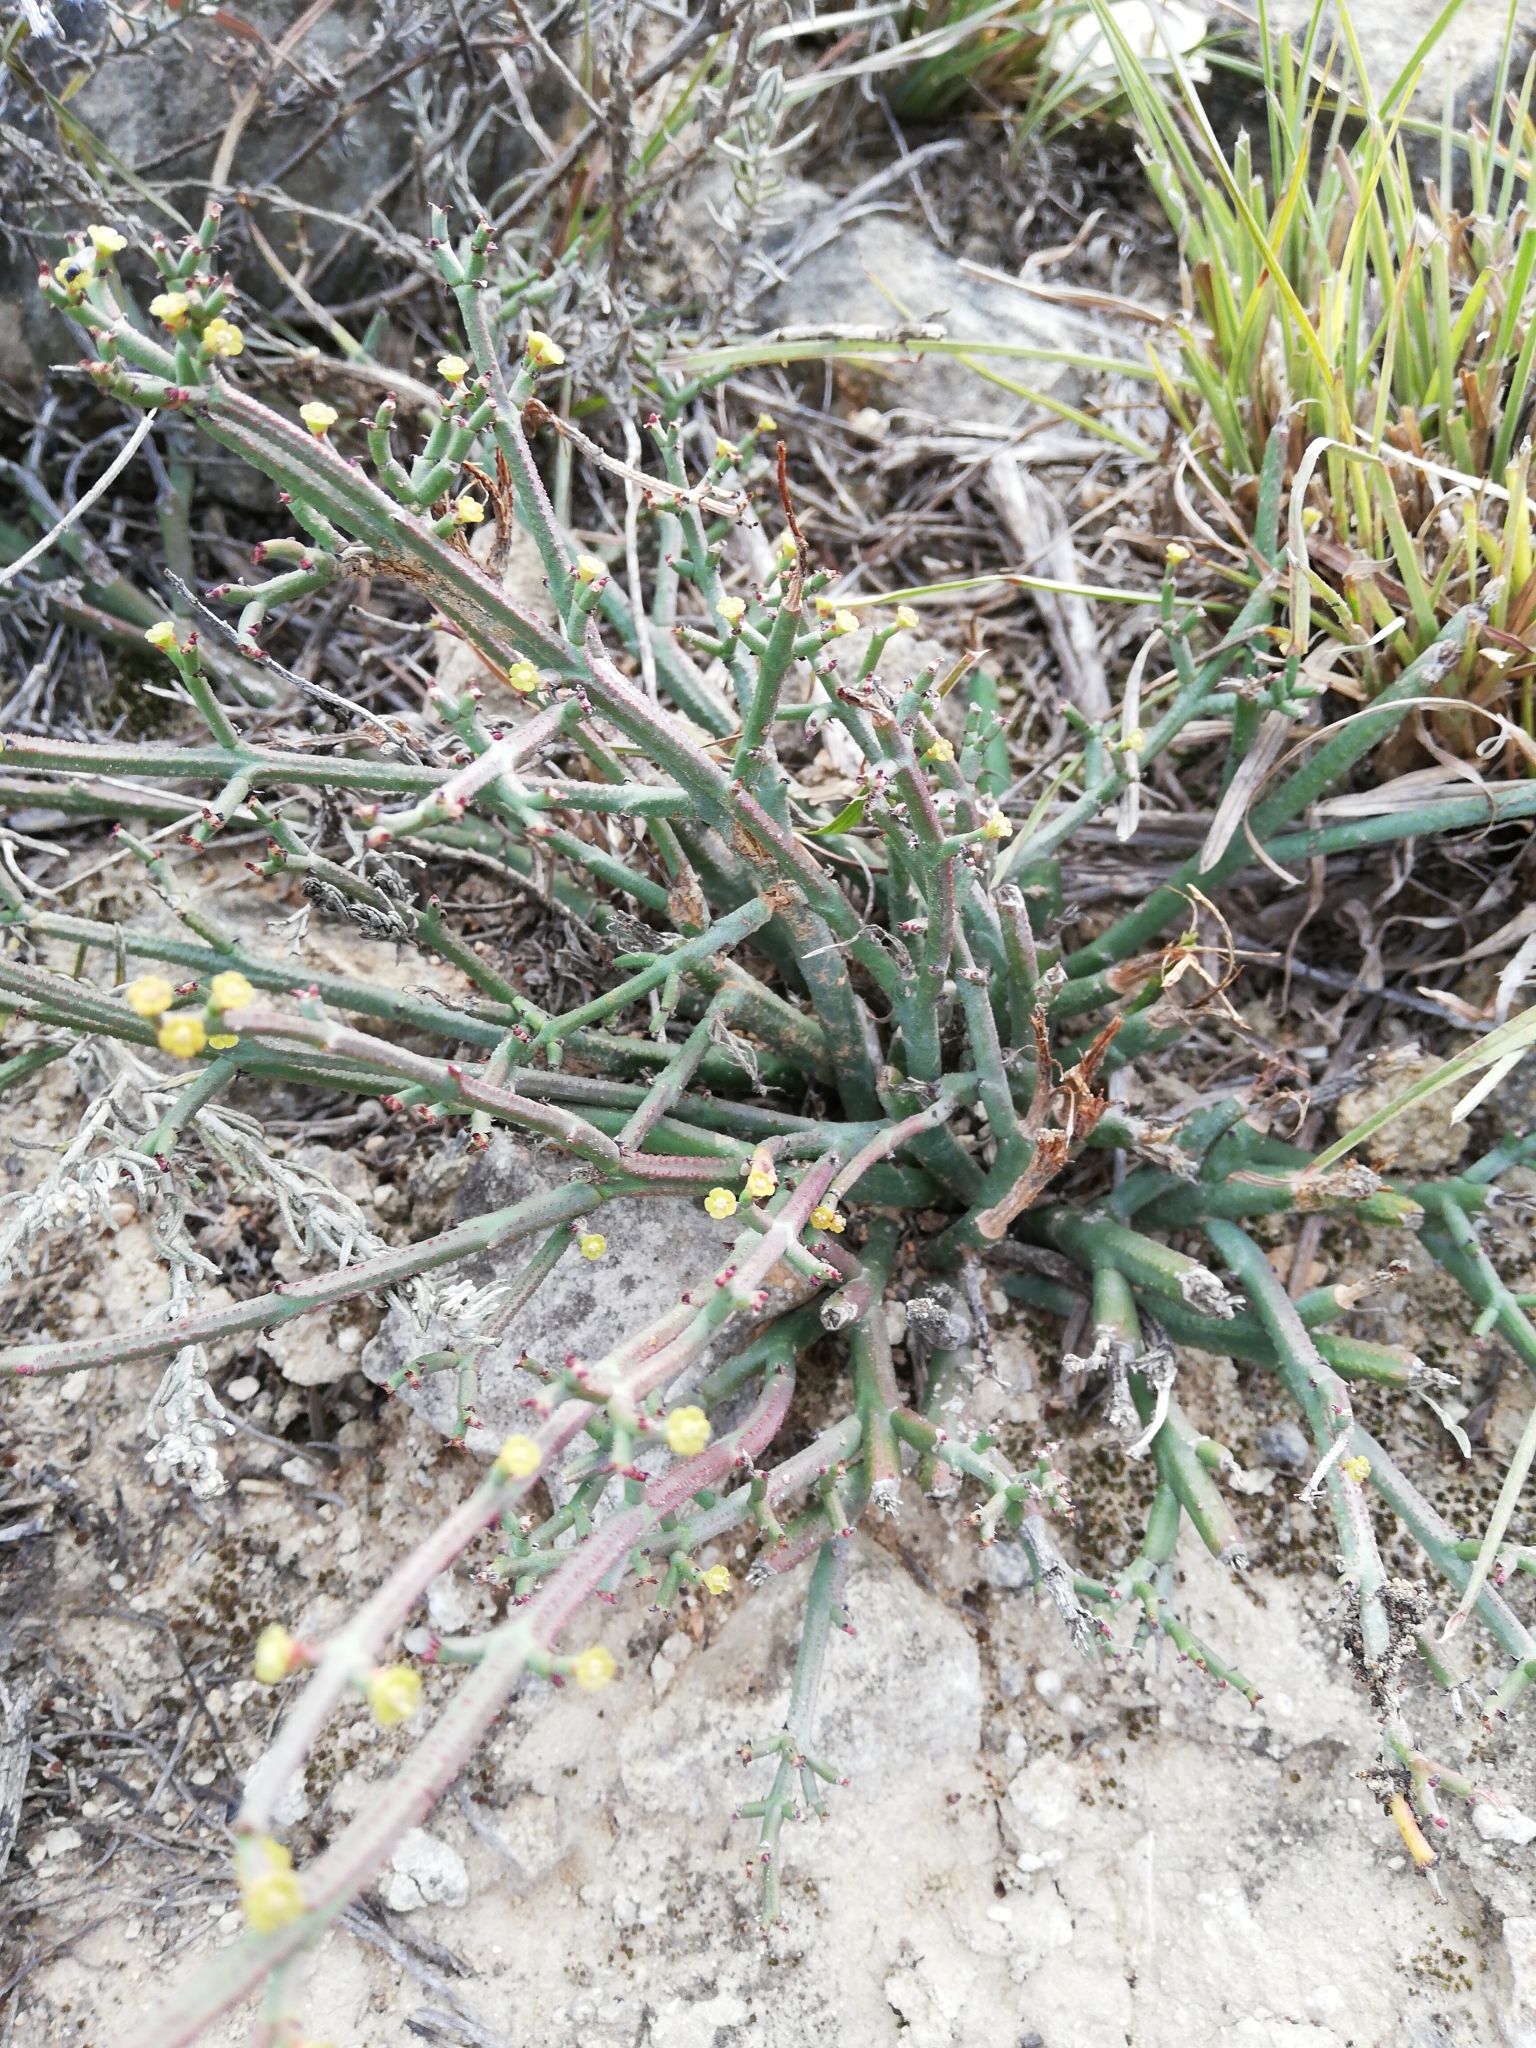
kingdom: Plantae
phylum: Tracheophyta
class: Magnoliopsida
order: Malpighiales
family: Euphorbiaceae
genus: Euphorbia
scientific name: Euphorbia rhombifolia
